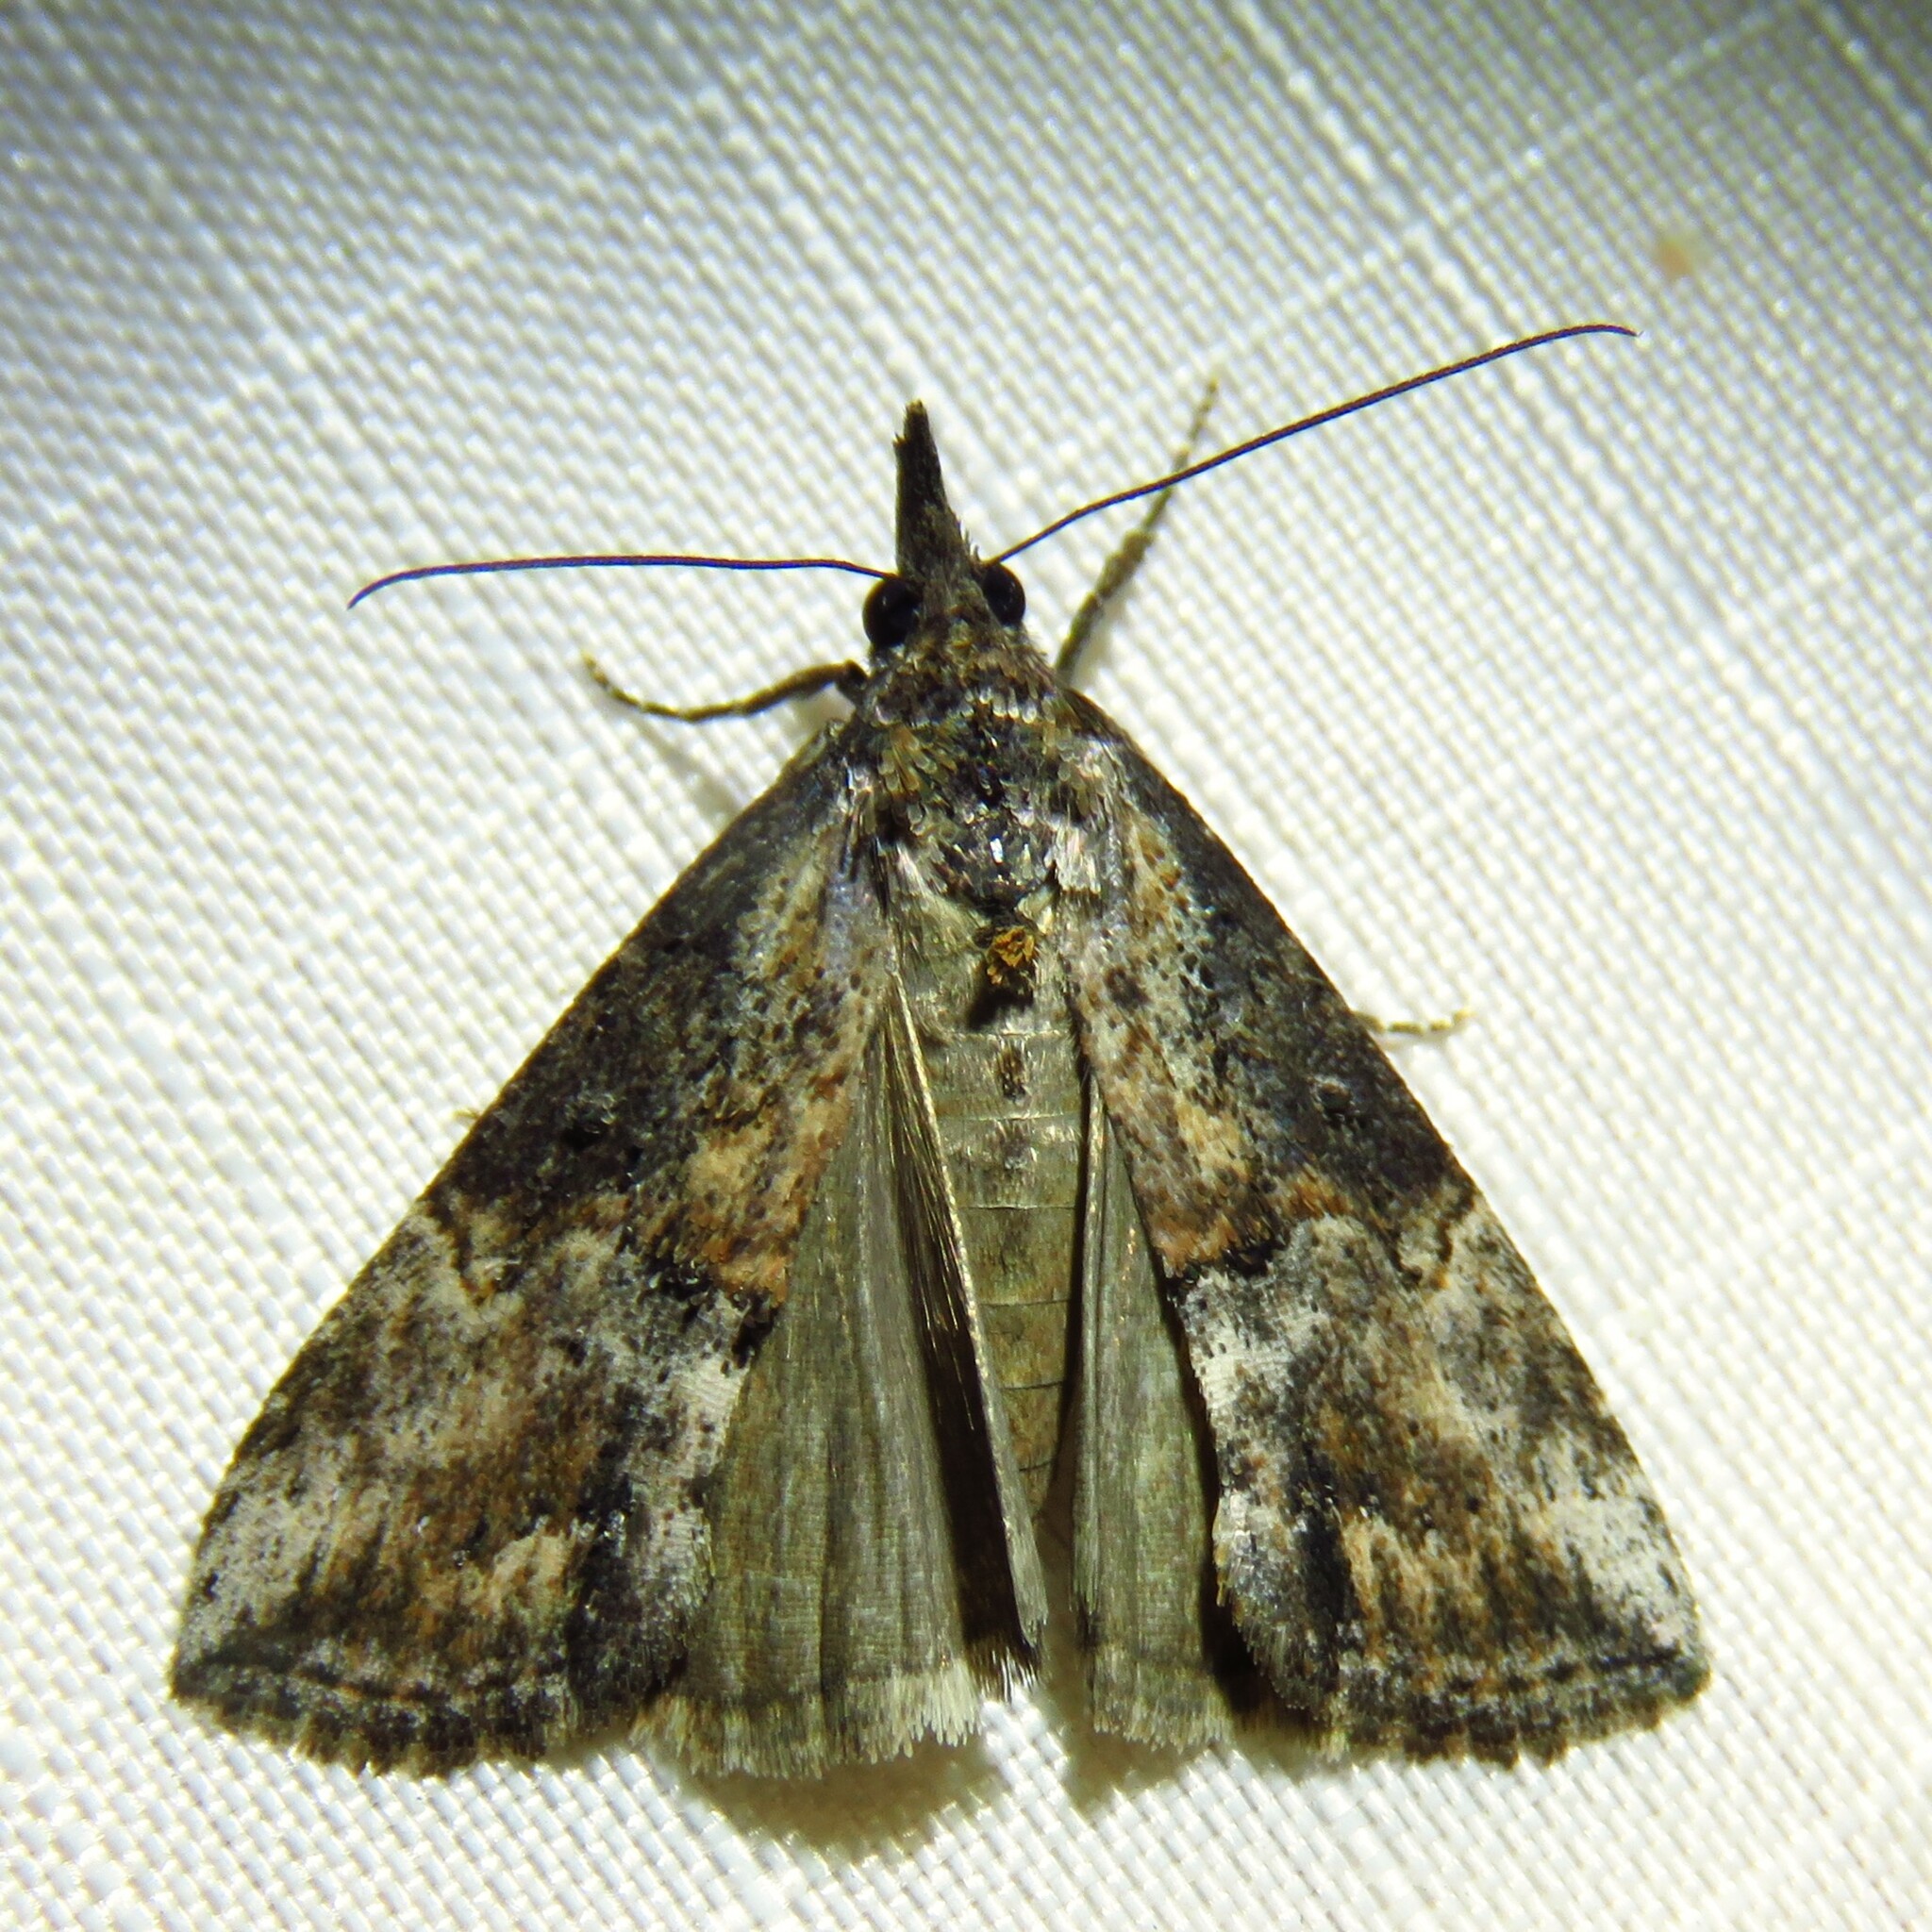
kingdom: Animalia
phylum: Arthropoda
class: Insecta
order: Lepidoptera
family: Erebidae
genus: Hypena
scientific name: Hypena scabra
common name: Green cloverworm
